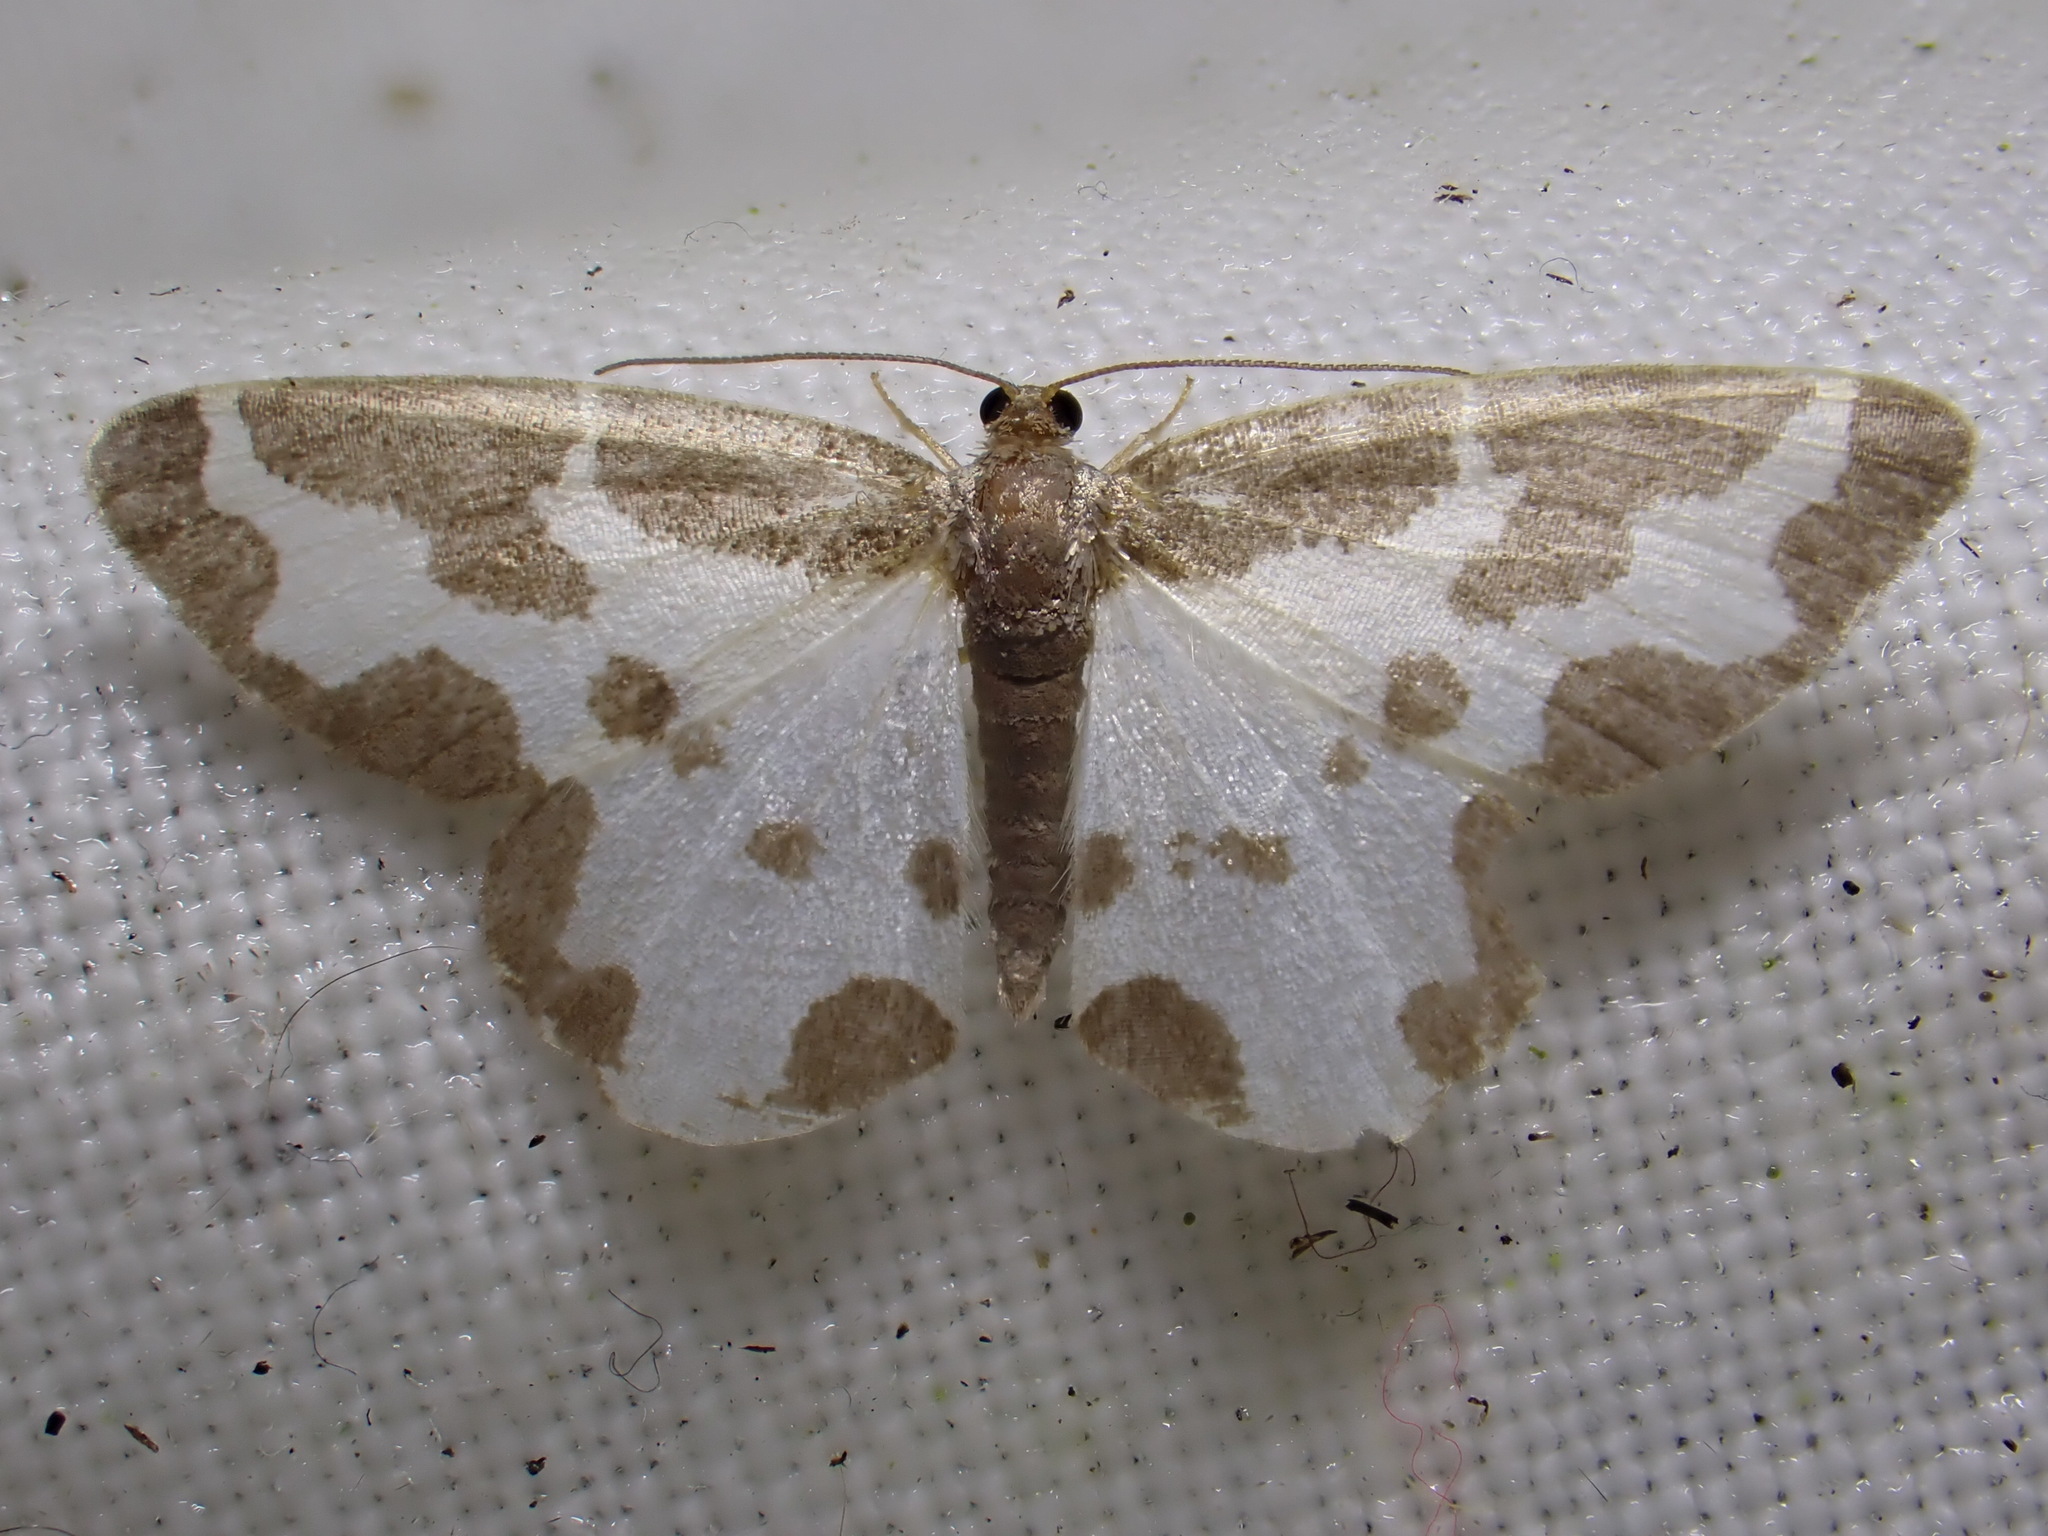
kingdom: Animalia
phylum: Arthropoda
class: Insecta
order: Lepidoptera
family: Geometridae
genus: Lomaspilis
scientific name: Lomaspilis marginata
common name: Clouded border
